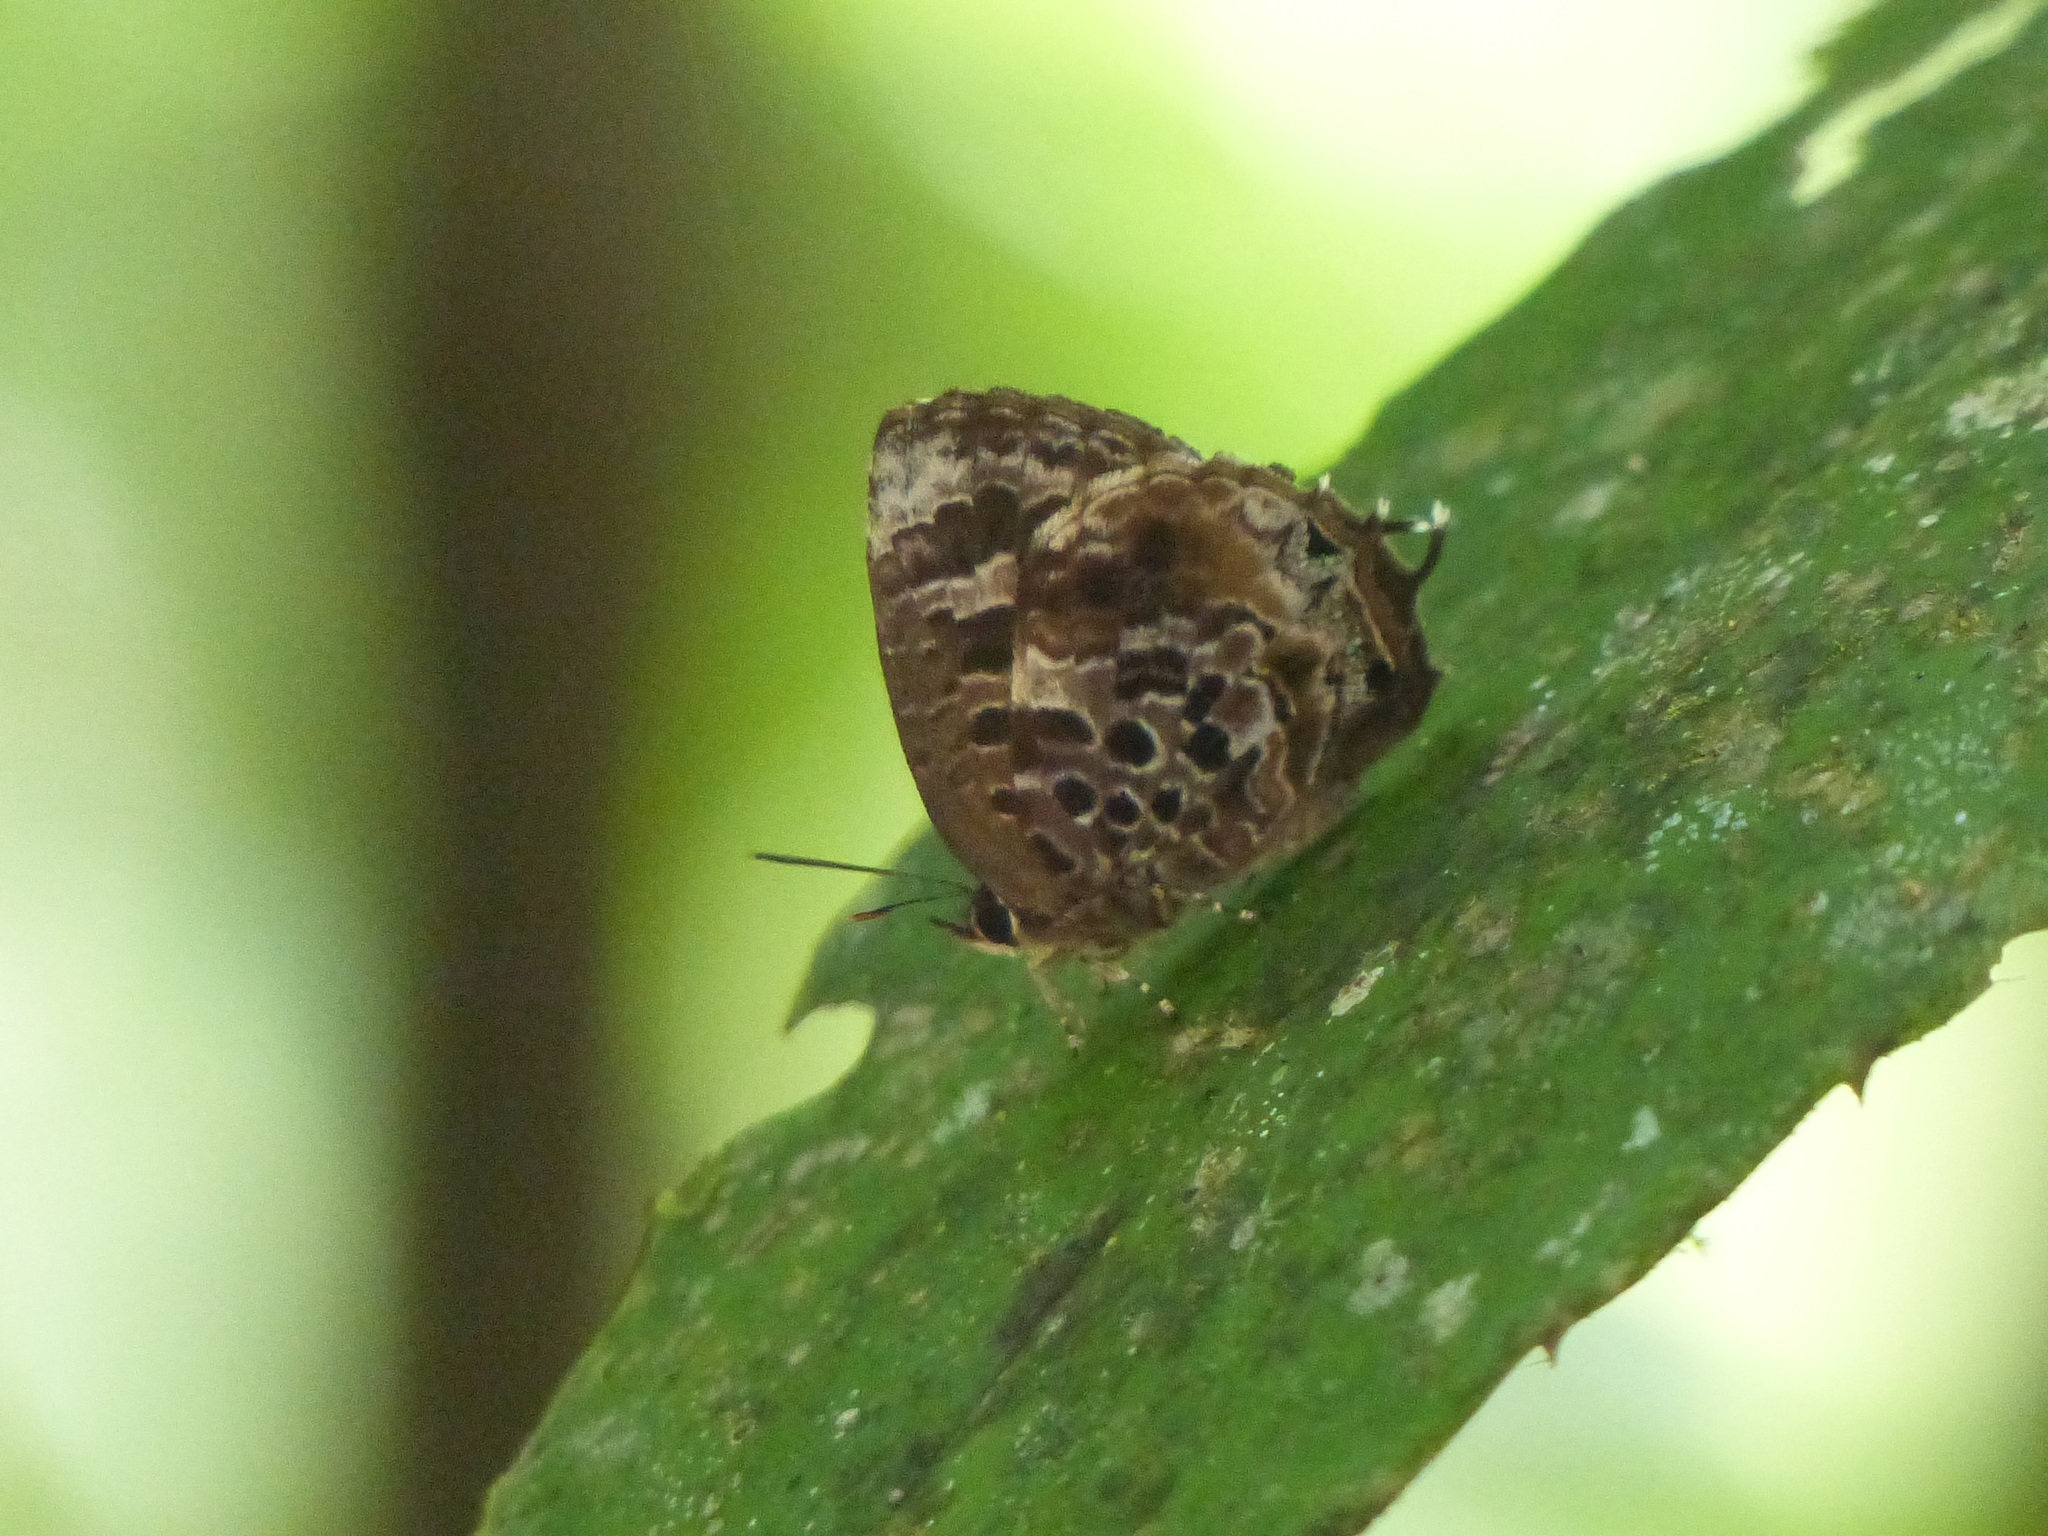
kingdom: Animalia
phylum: Arthropoda
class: Insecta
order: Lepidoptera
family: Lycaenidae
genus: Arhopala
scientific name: Arhopala abseus
